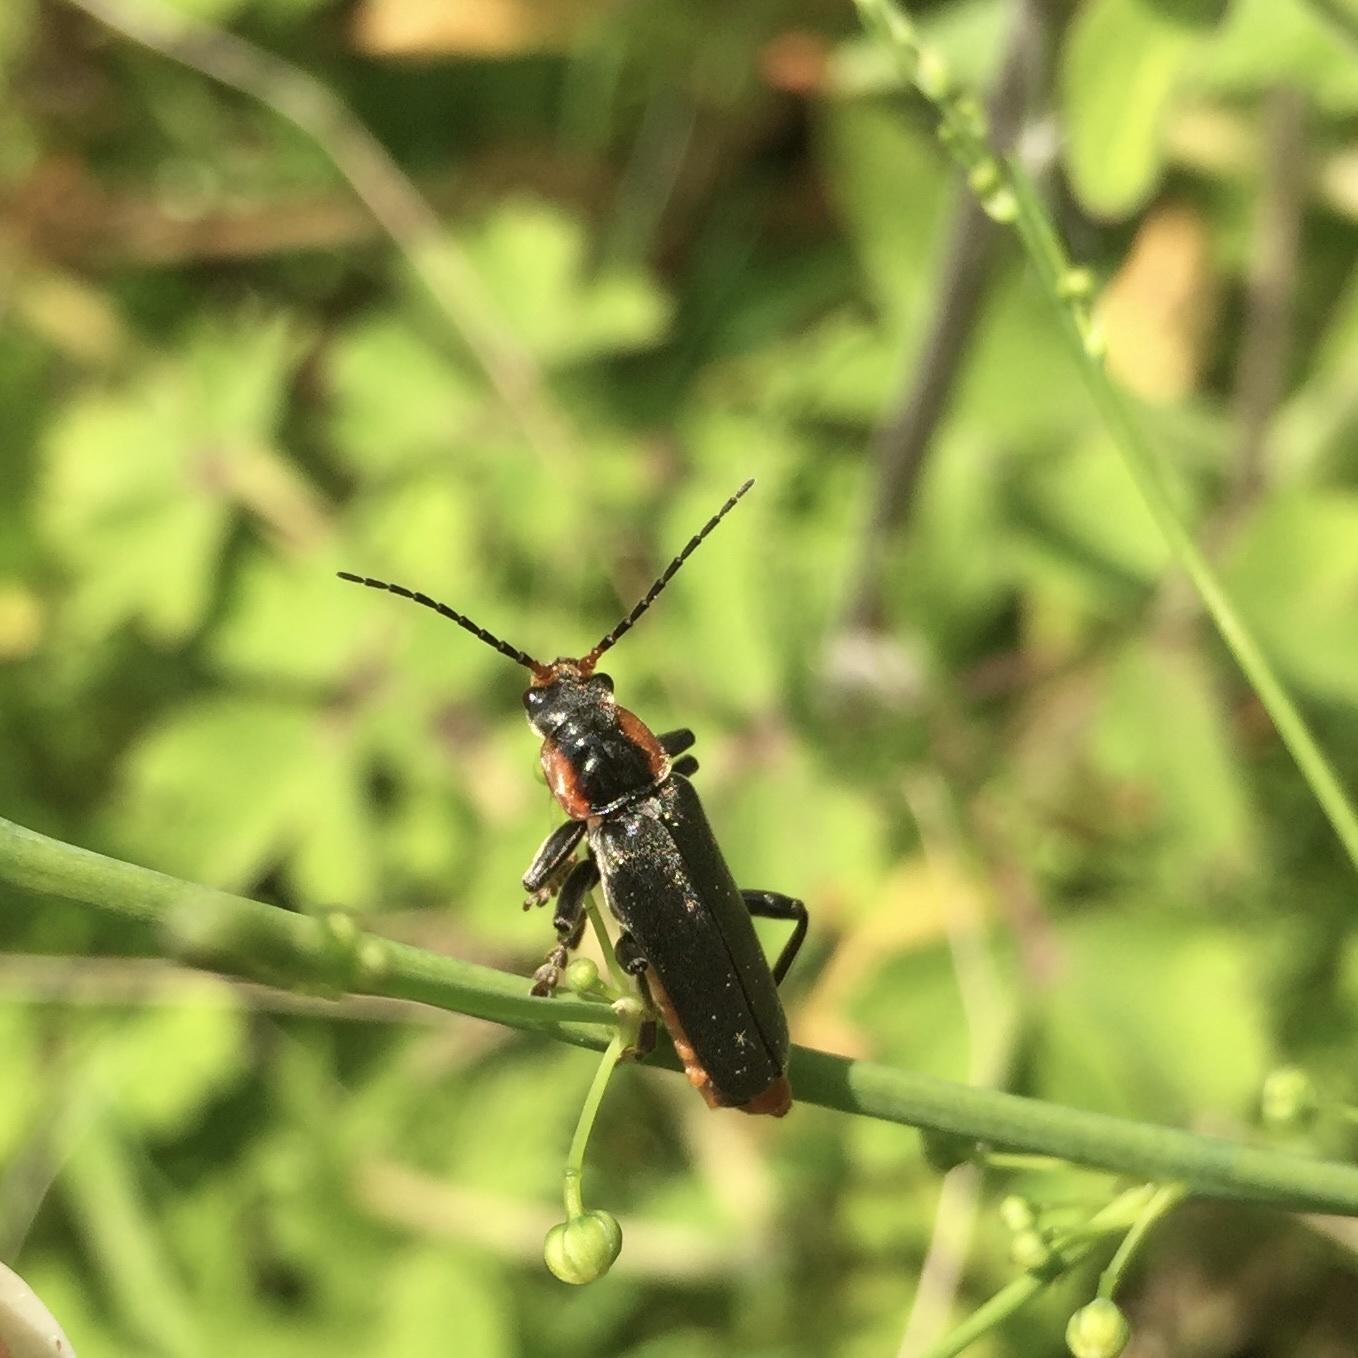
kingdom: Animalia
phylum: Arthropoda
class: Insecta
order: Coleoptera
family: Cantharidae
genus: Cantharis
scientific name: Cantharis fusca
